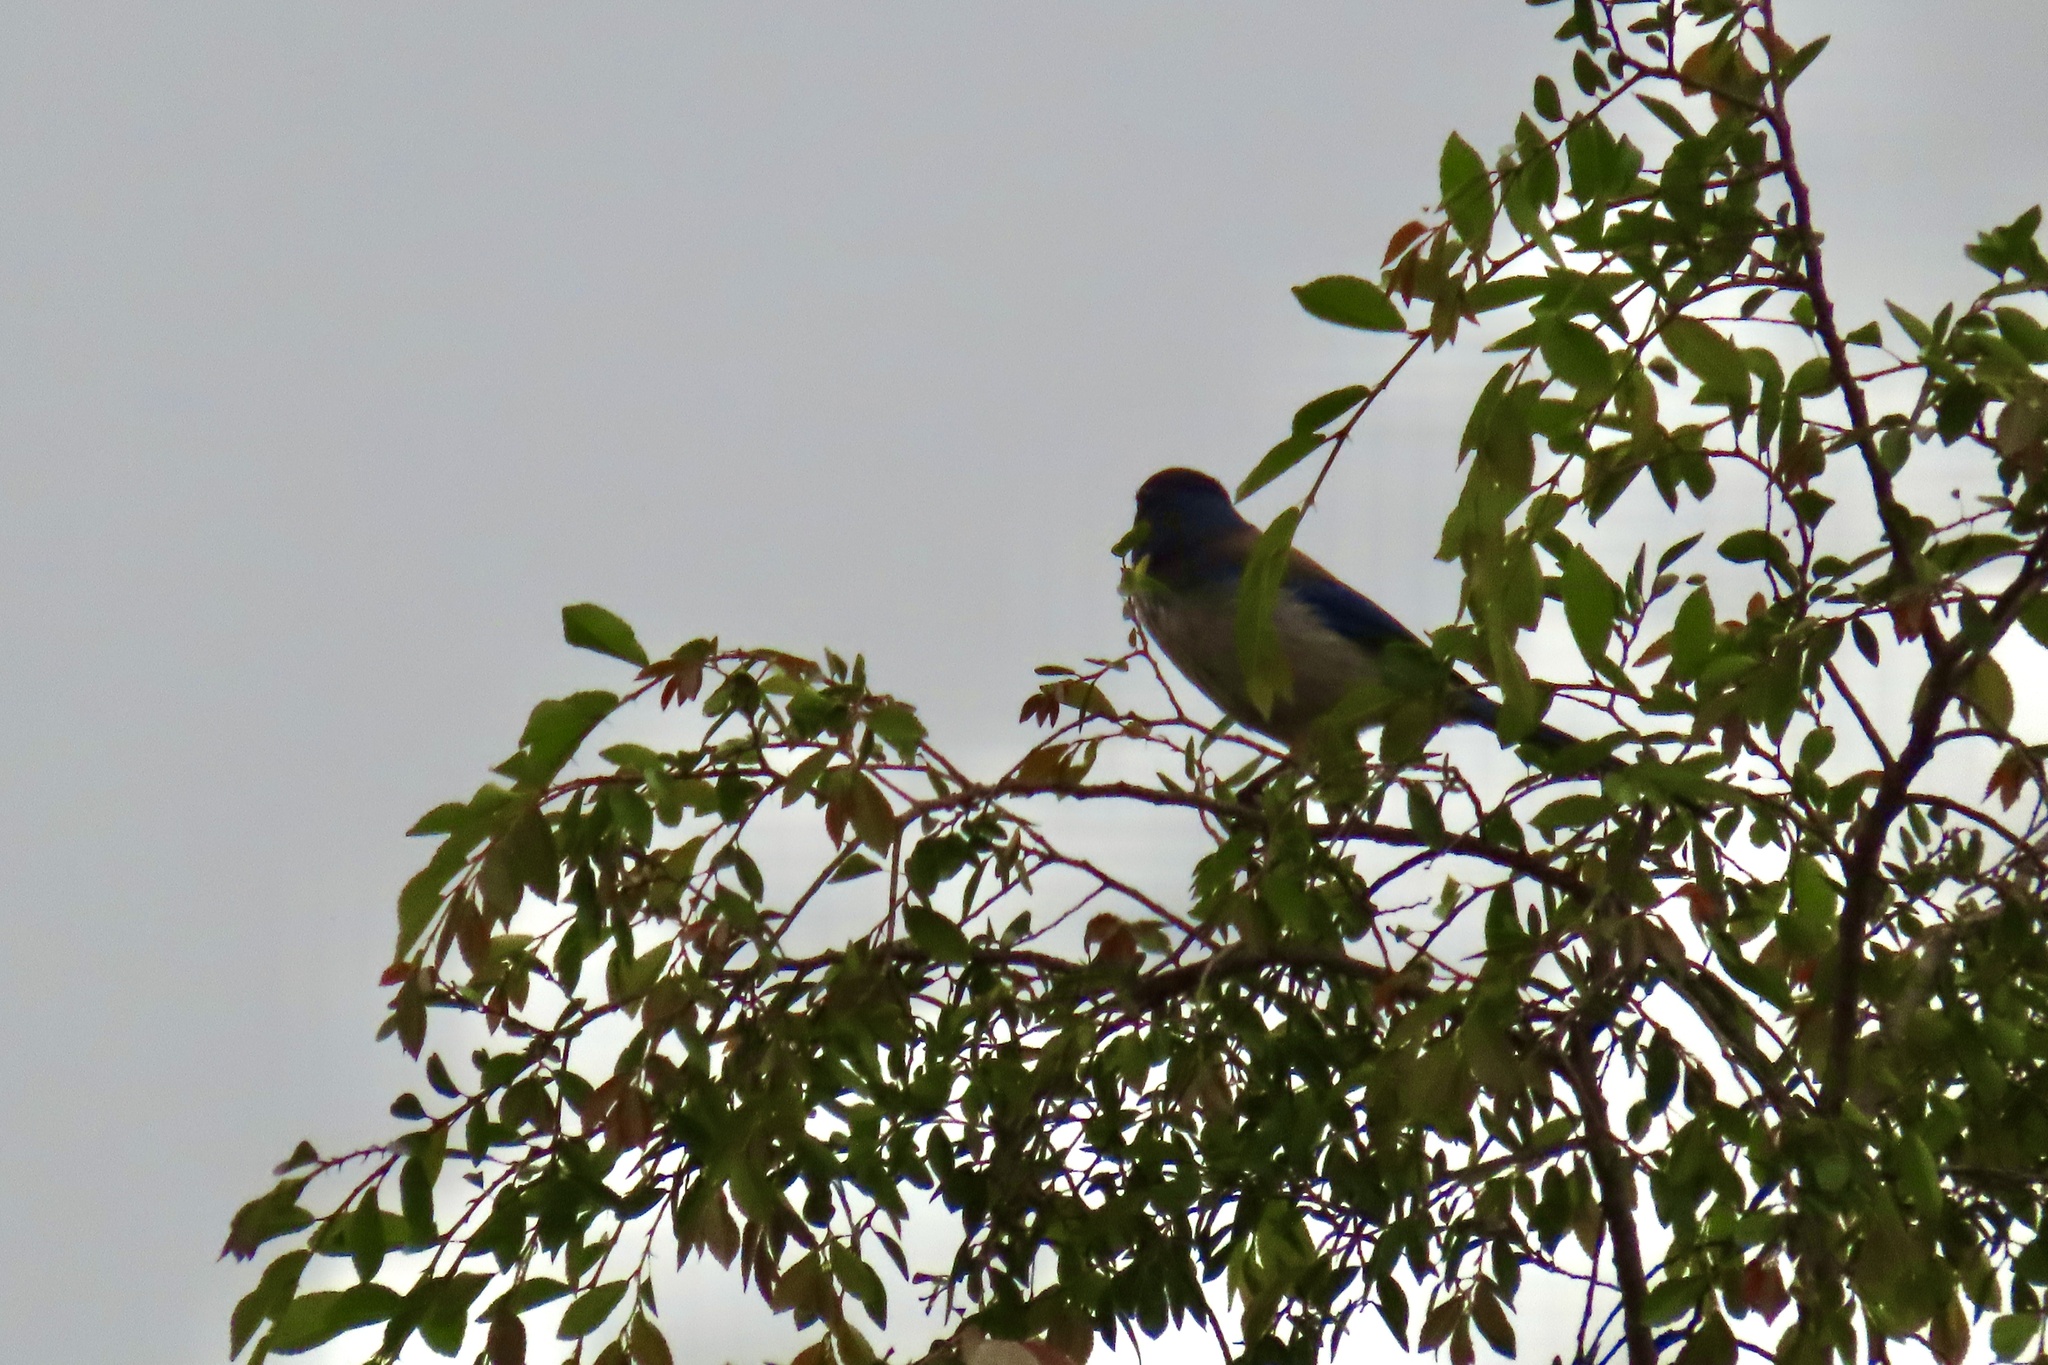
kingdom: Animalia
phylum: Chordata
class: Aves
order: Passeriformes
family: Corvidae
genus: Aphelocoma
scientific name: Aphelocoma californica
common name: California scrub-jay
